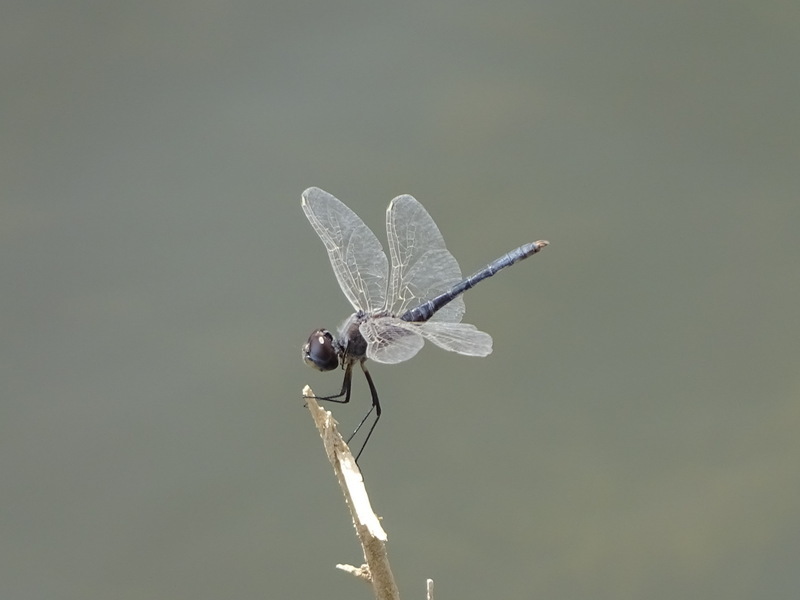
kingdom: Animalia
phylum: Arthropoda
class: Insecta
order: Odonata
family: Libellulidae
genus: Selysiothemis
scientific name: Selysiothemis nigra
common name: Black pennant
